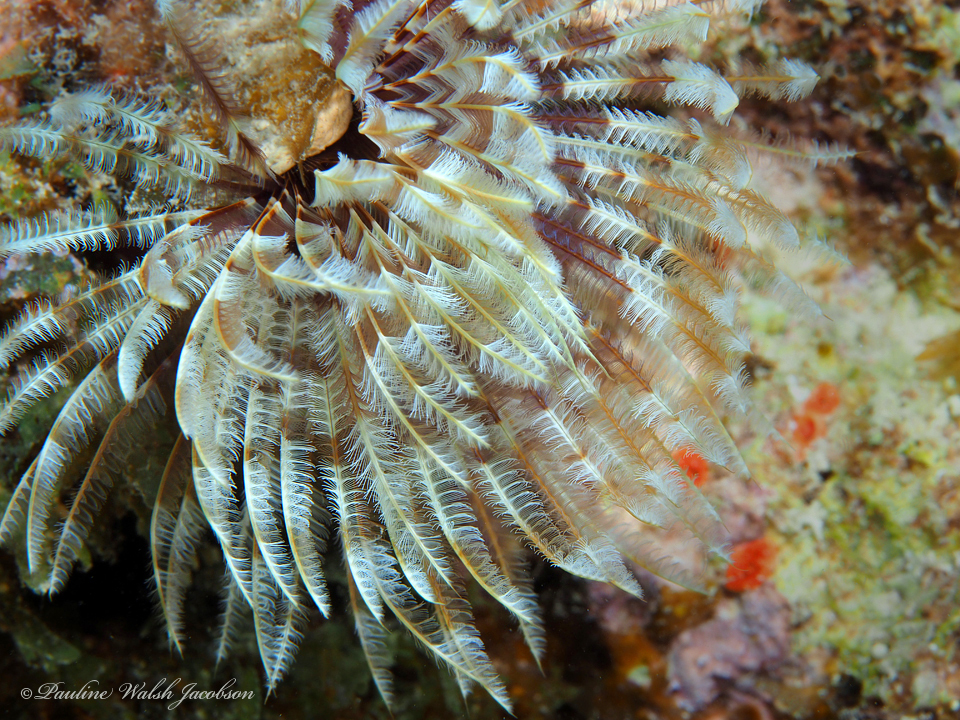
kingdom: Animalia
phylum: Annelida
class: Polychaeta
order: Sabellida
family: Sabellidae
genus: Sabellastarte
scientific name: Sabellastarte magnifica
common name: Giant feather-duster worm
